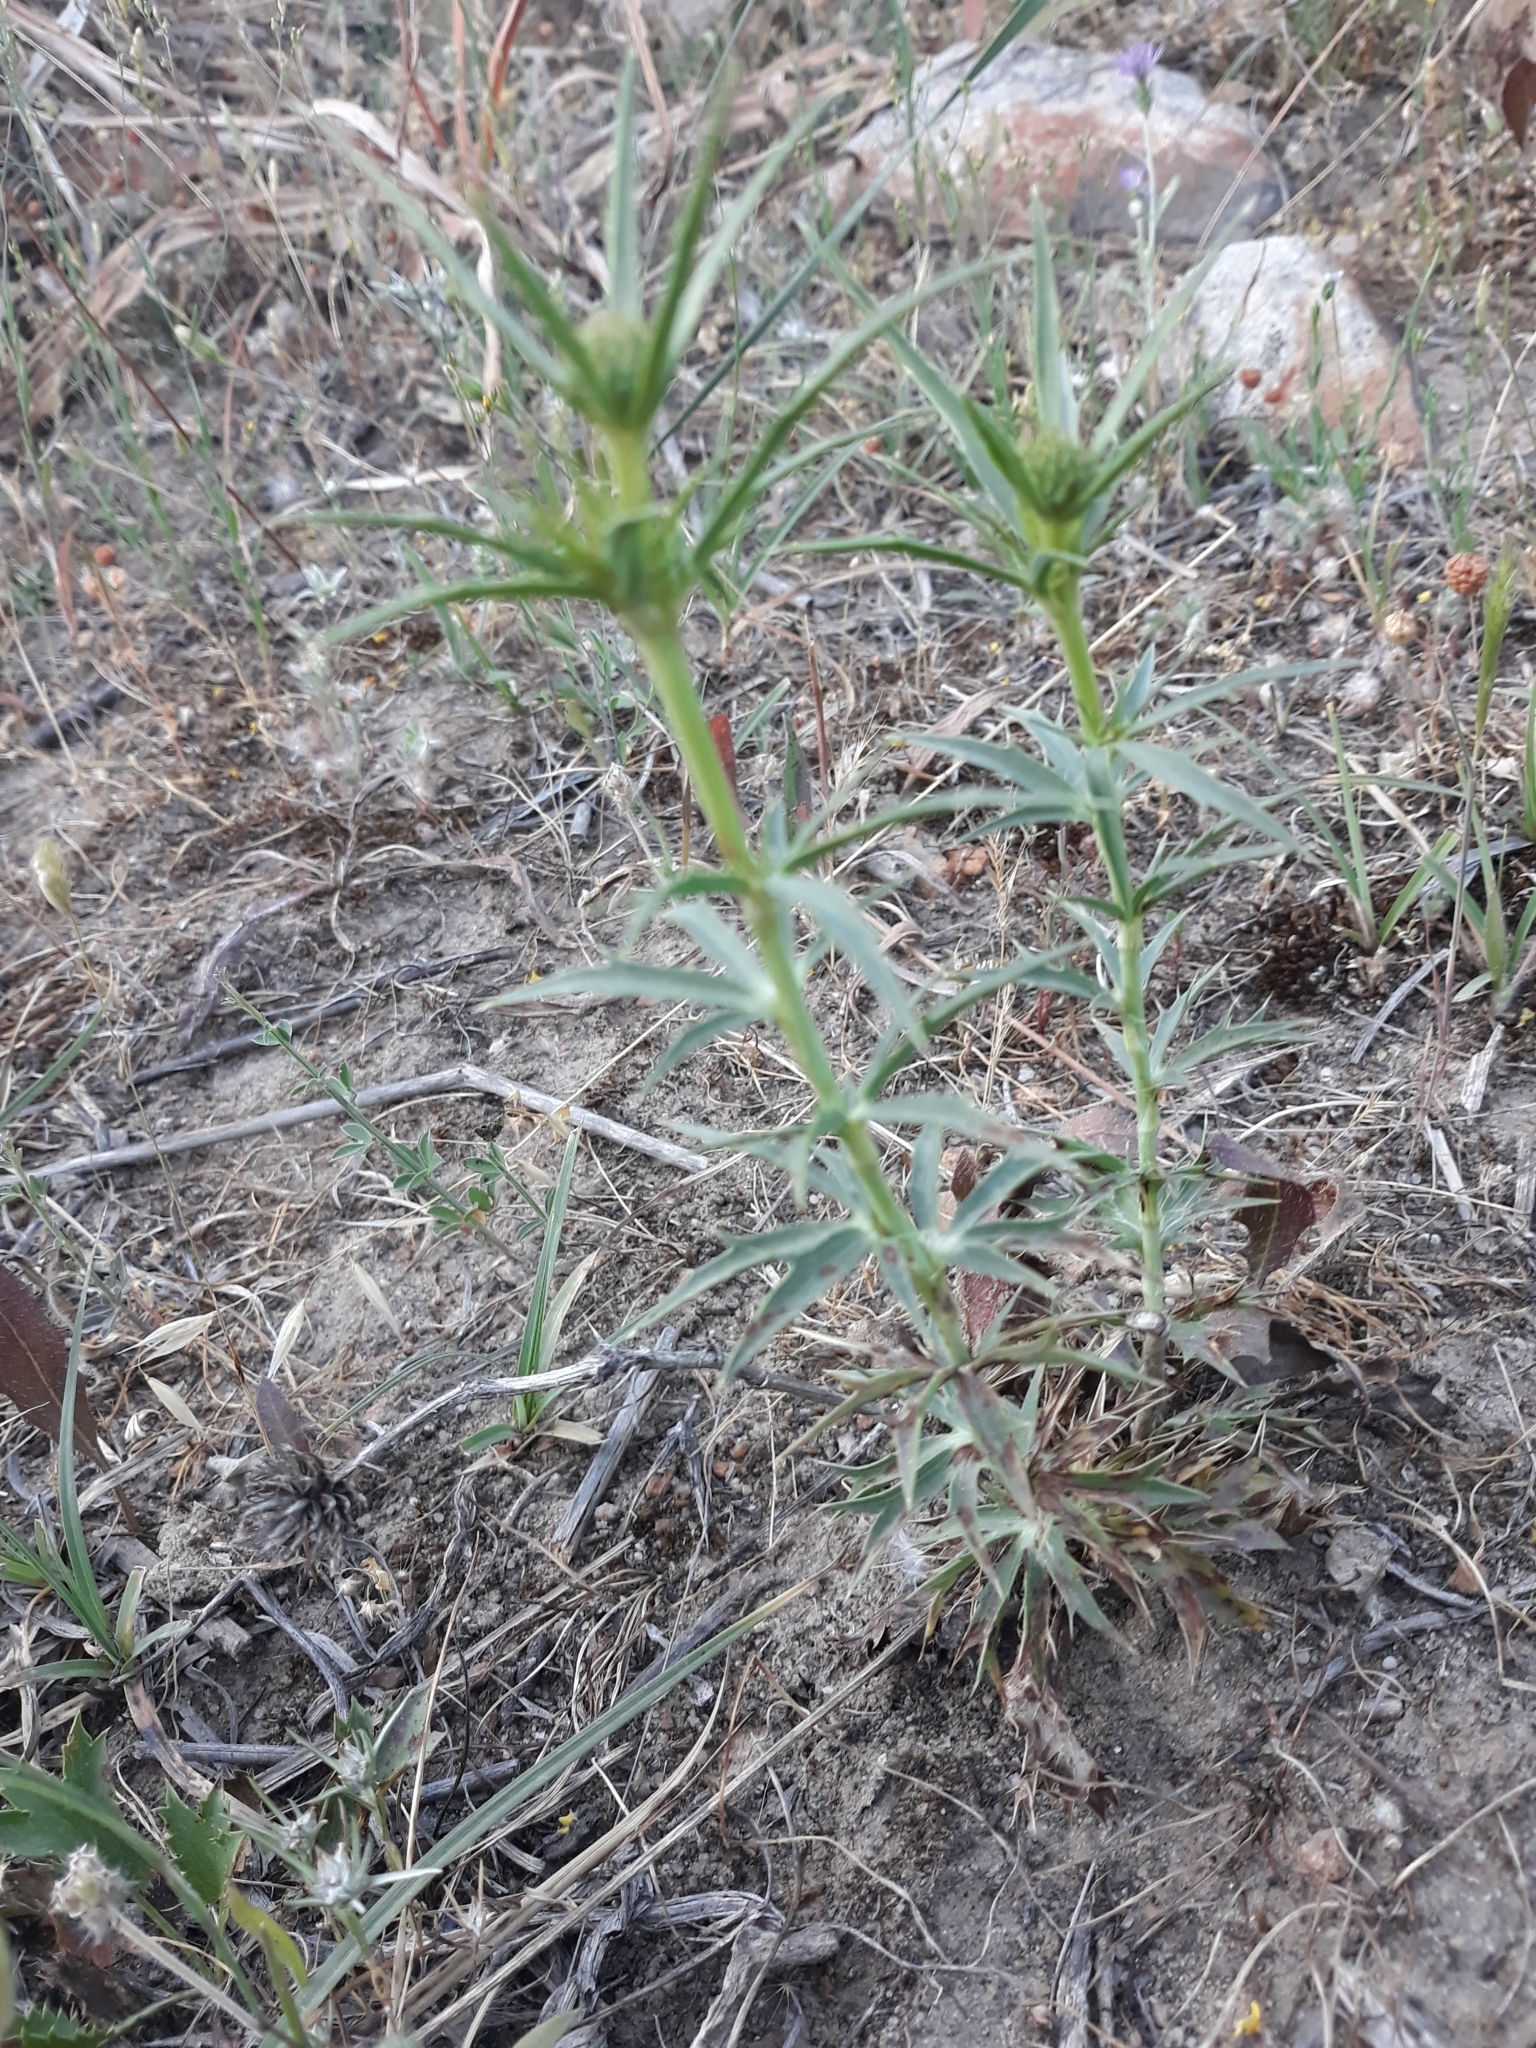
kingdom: Plantae
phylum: Tracheophyta
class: Magnoliopsida
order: Apiales
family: Apiaceae
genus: Eryngium
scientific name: Eryngium tricuspidatum
